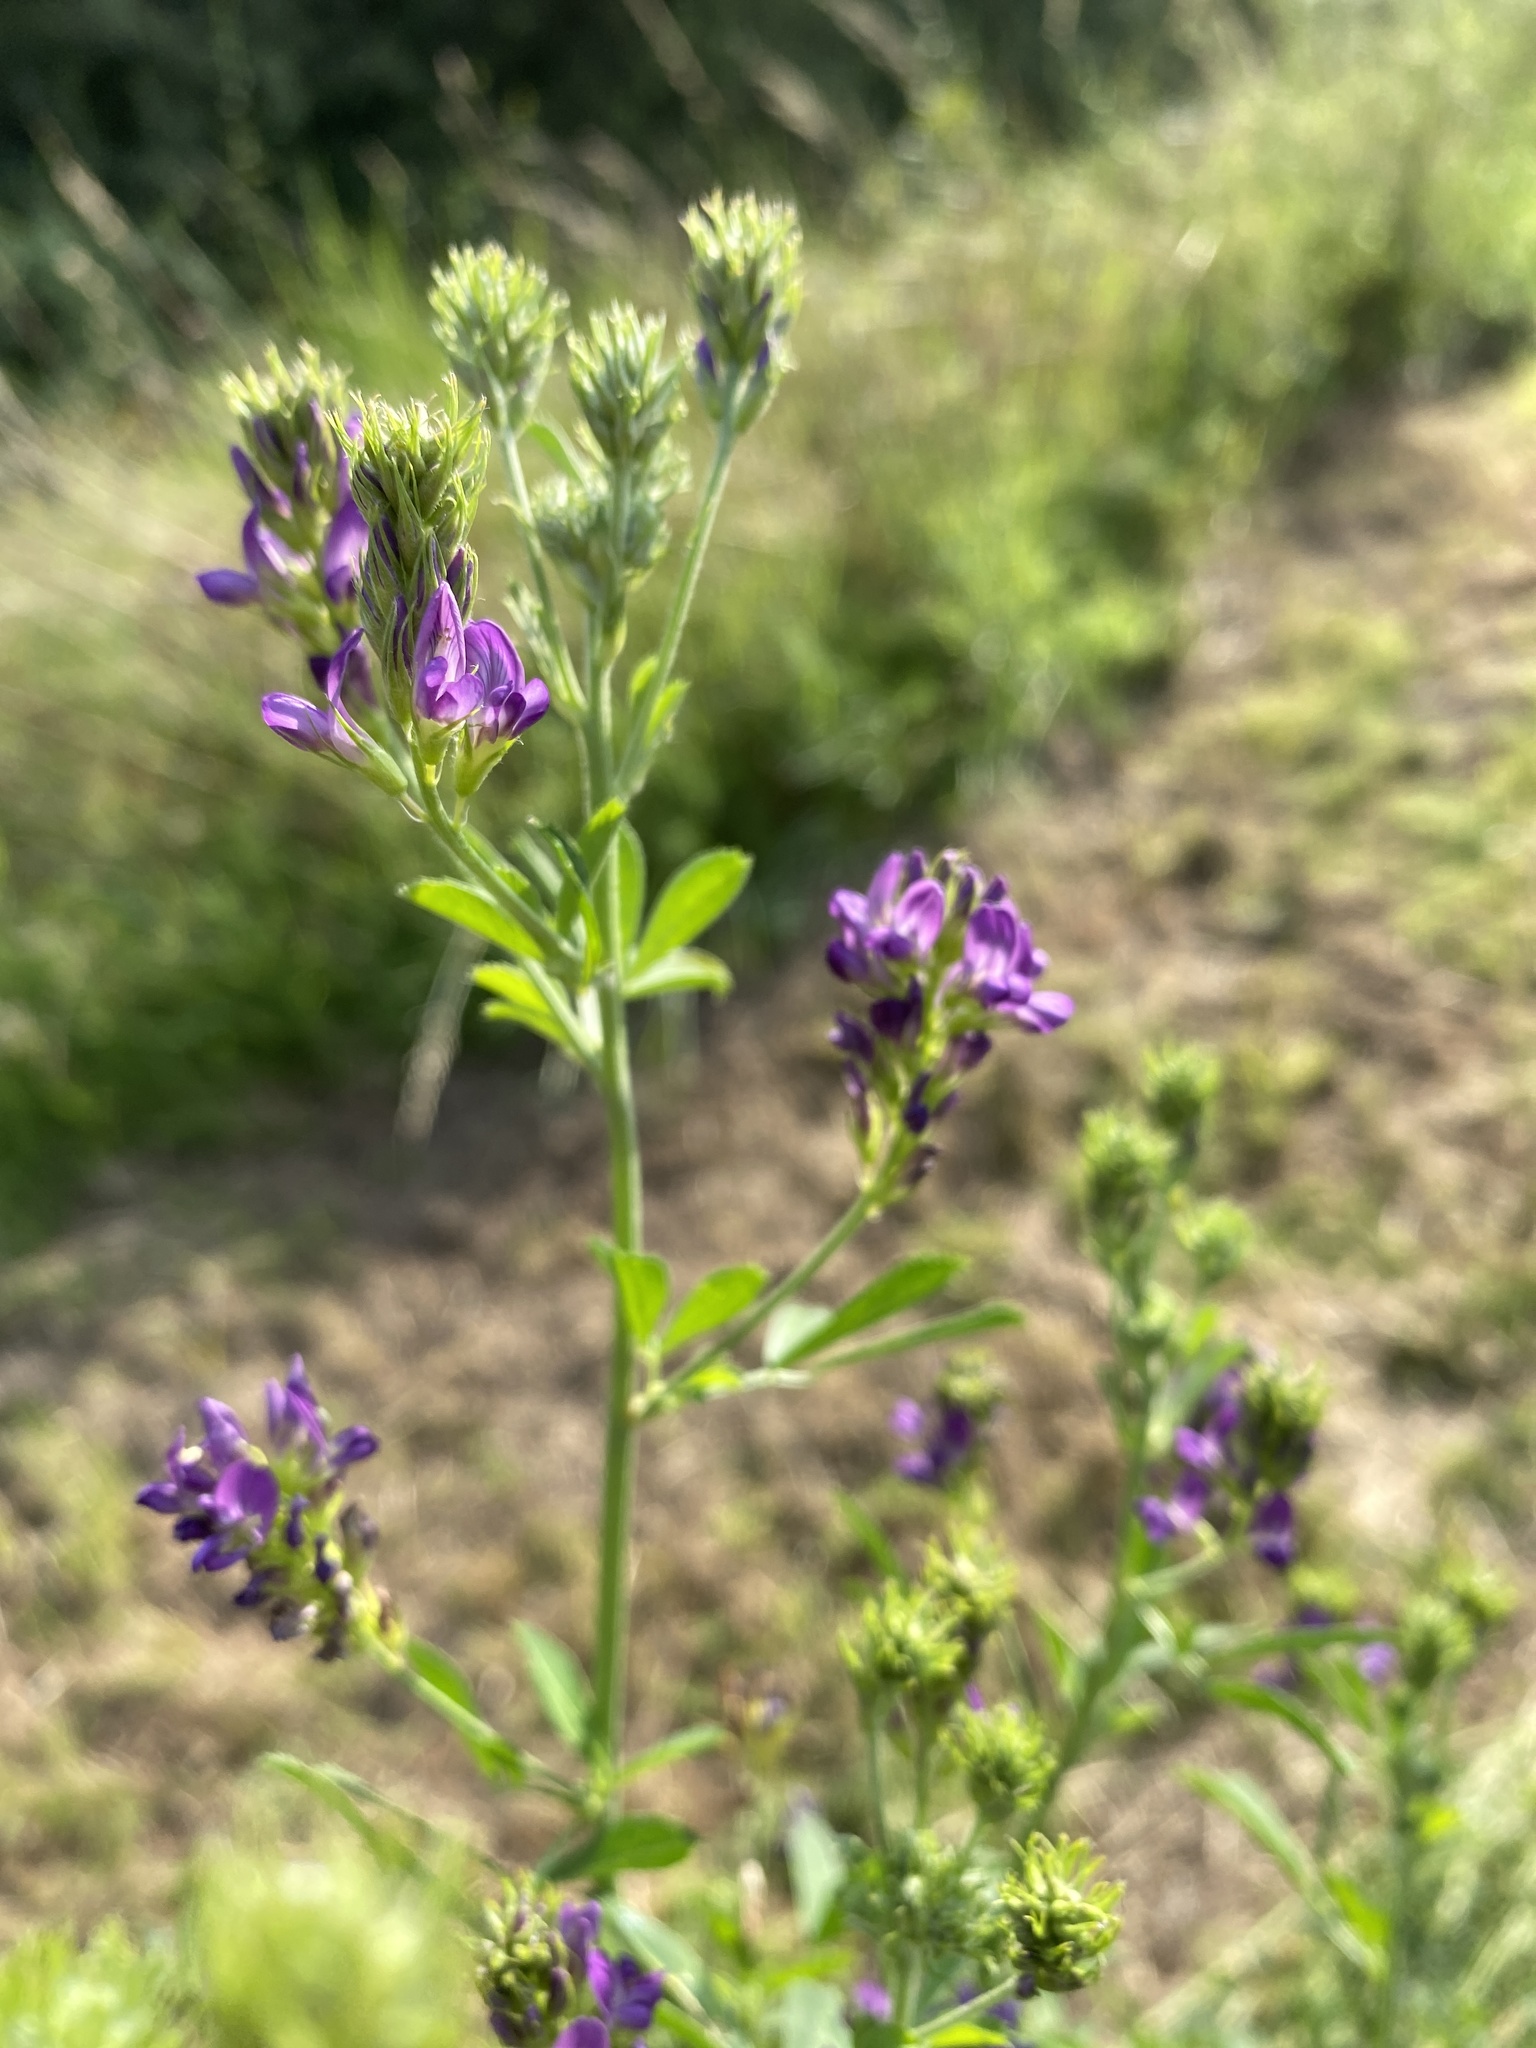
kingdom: Plantae
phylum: Tracheophyta
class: Magnoliopsida
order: Fabales
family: Fabaceae
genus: Medicago
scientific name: Medicago sativa
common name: Alfalfa
